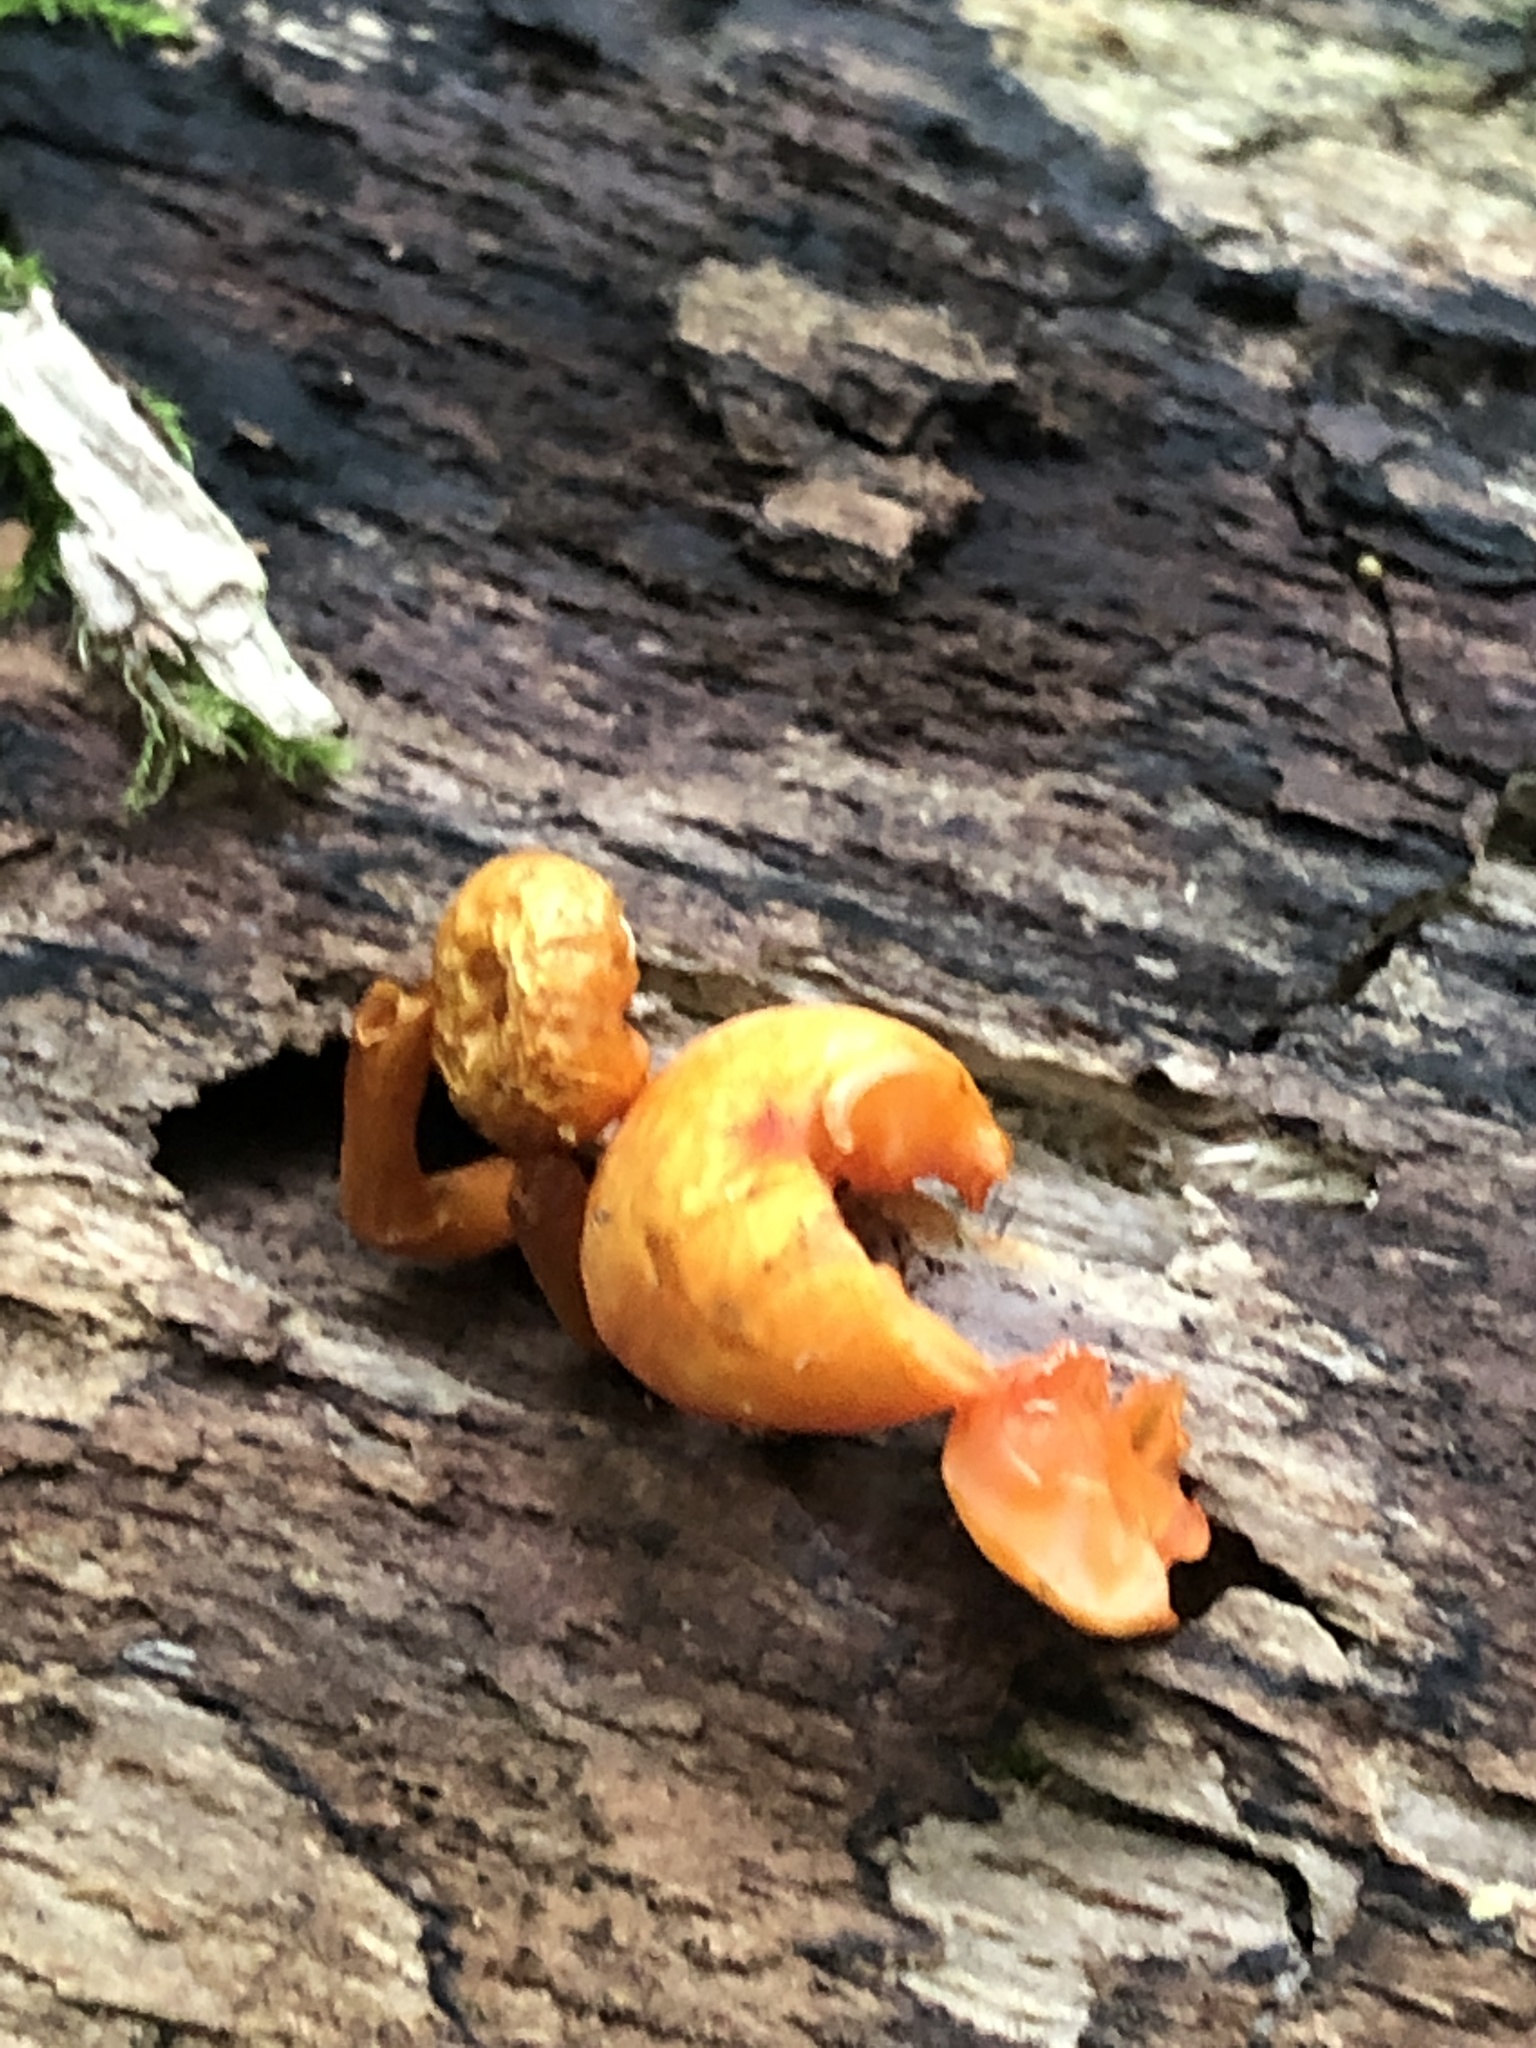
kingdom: Fungi
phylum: Basidiomycota
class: Agaricomycetes
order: Agaricales
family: Mycenaceae
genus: Mycena
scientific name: Mycena leaiana
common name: Orange mycena
